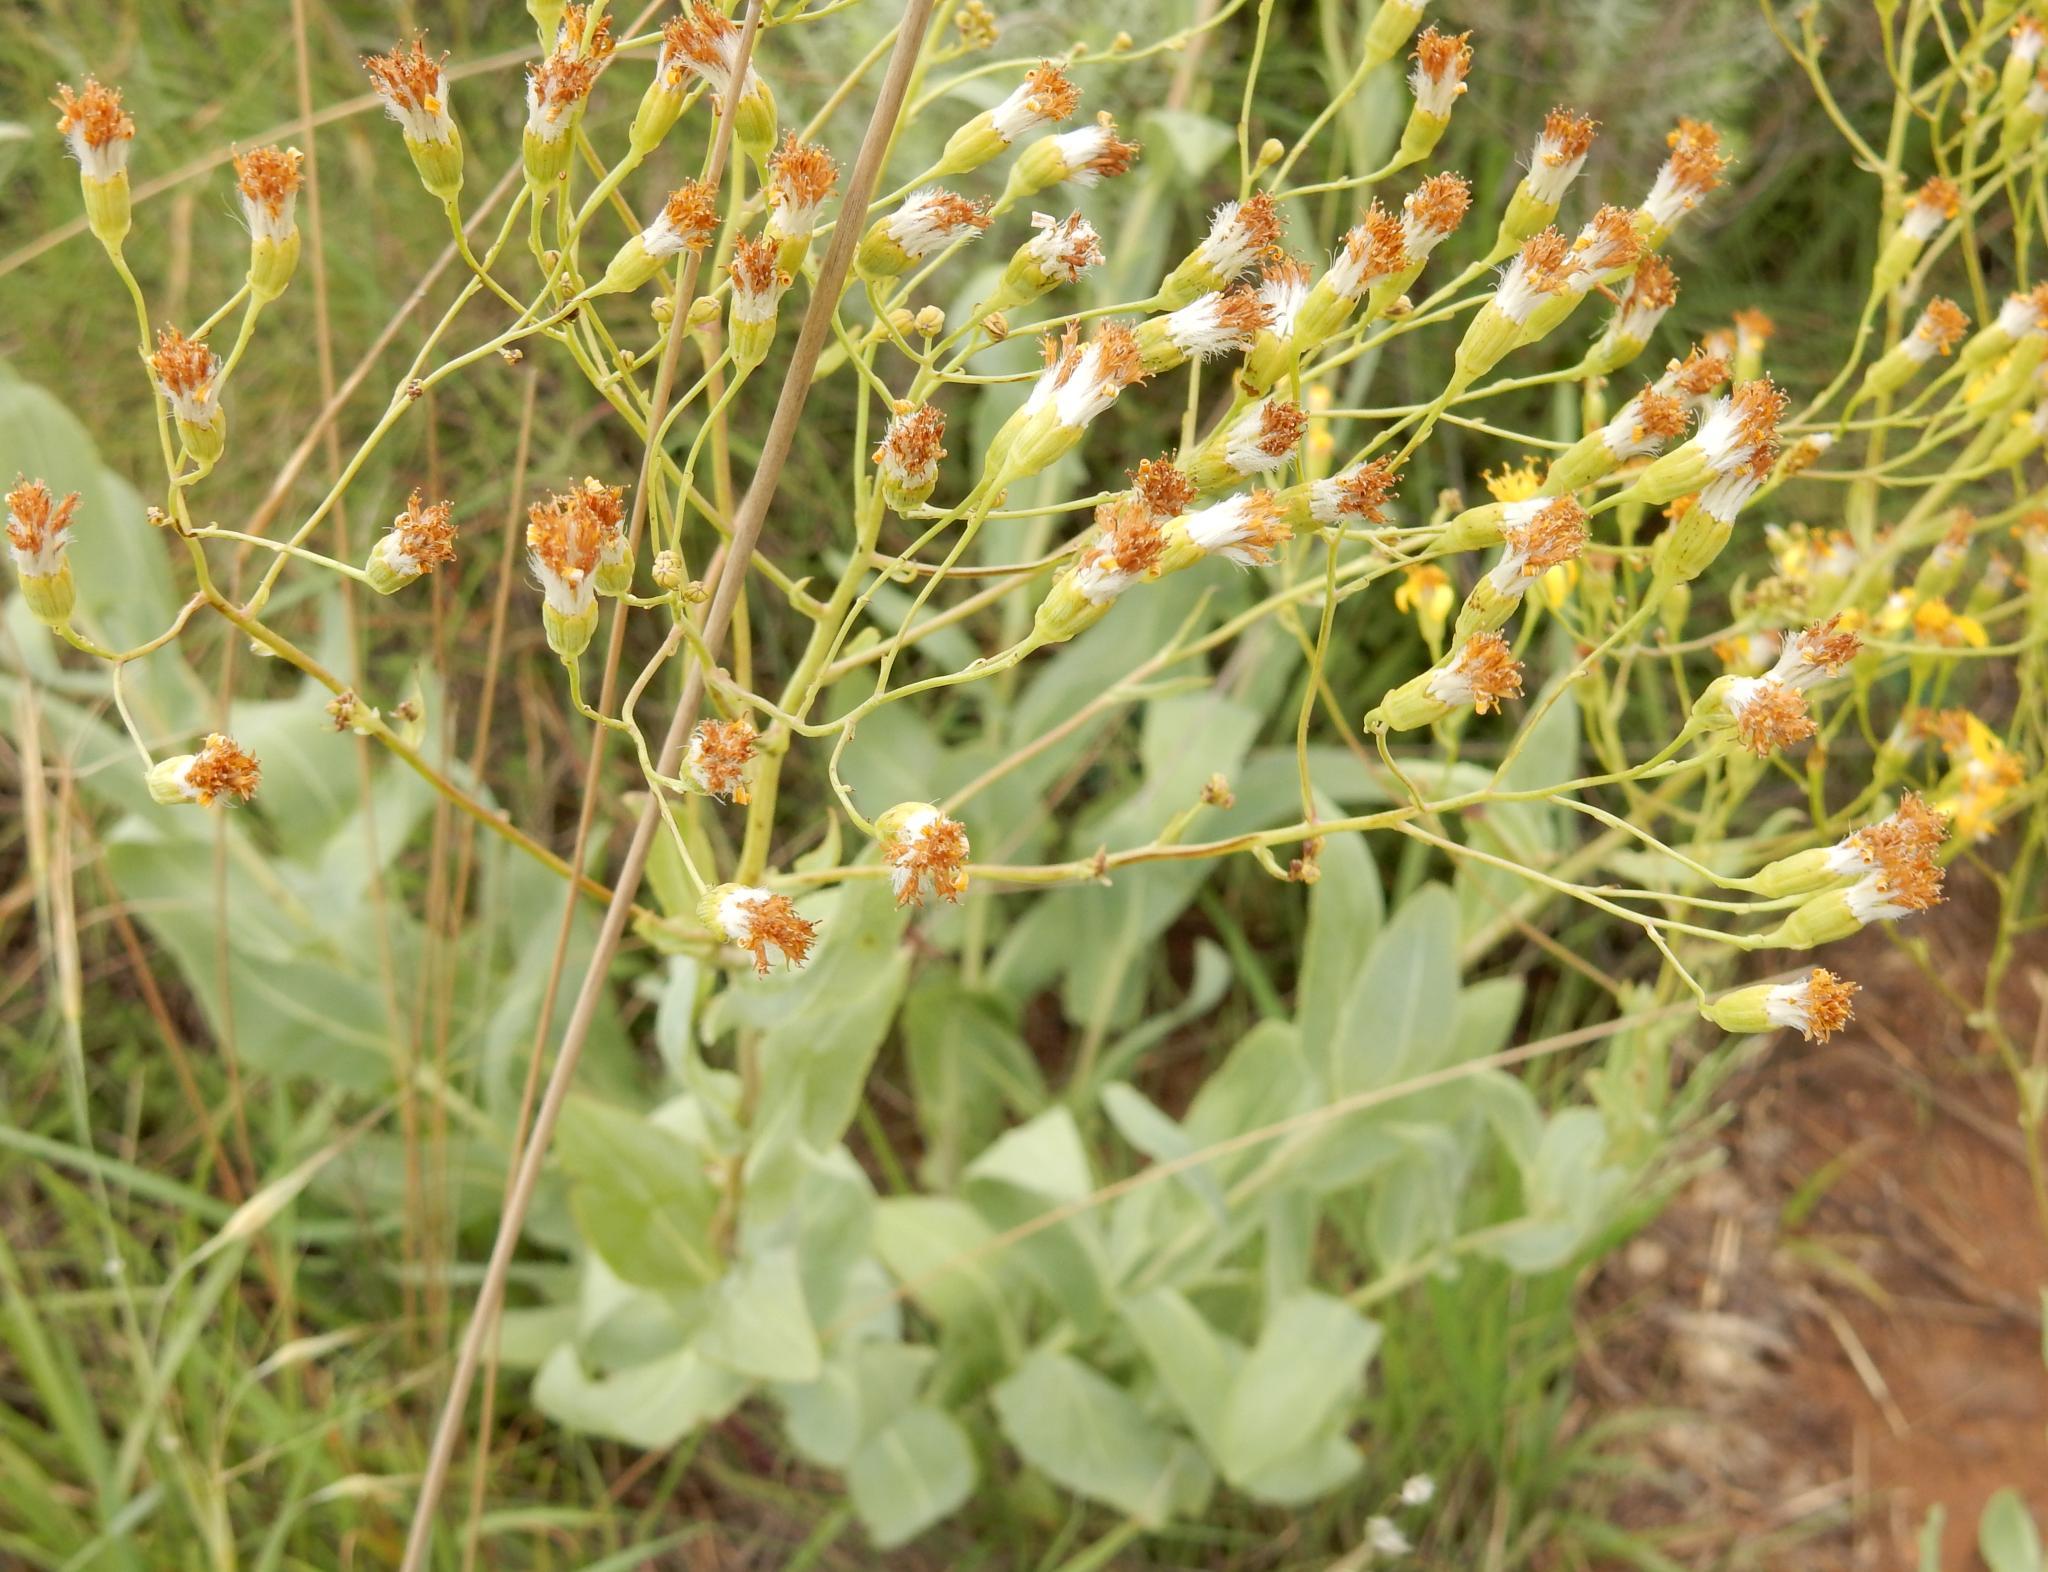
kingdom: Plantae
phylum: Tracheophyta
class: Magnoliopsida
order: Asterales
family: Asteraceae
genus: Senecio
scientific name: Senecio venosus
